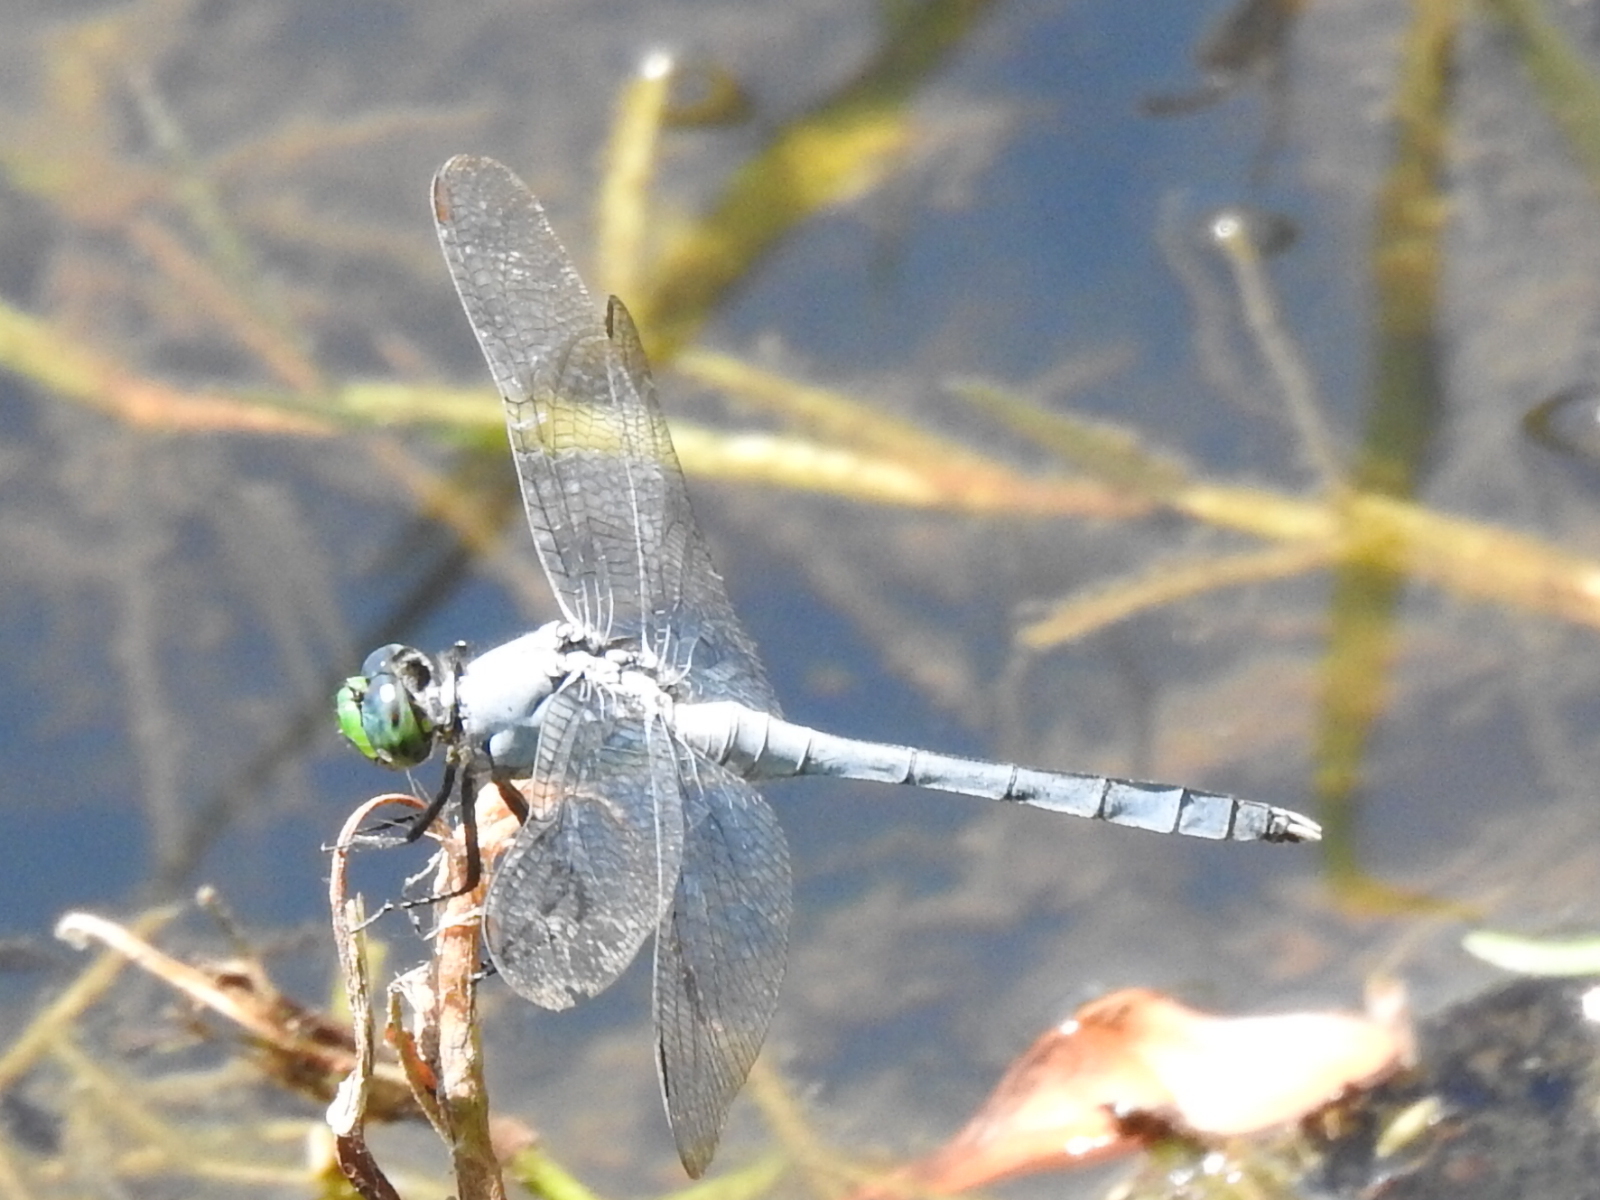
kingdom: Animalia
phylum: Arthropoda
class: Insecta
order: Odonata
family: Libellulidae
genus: Erythemis
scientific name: Erythemis simplicicollis
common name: Eastern pondhawk
